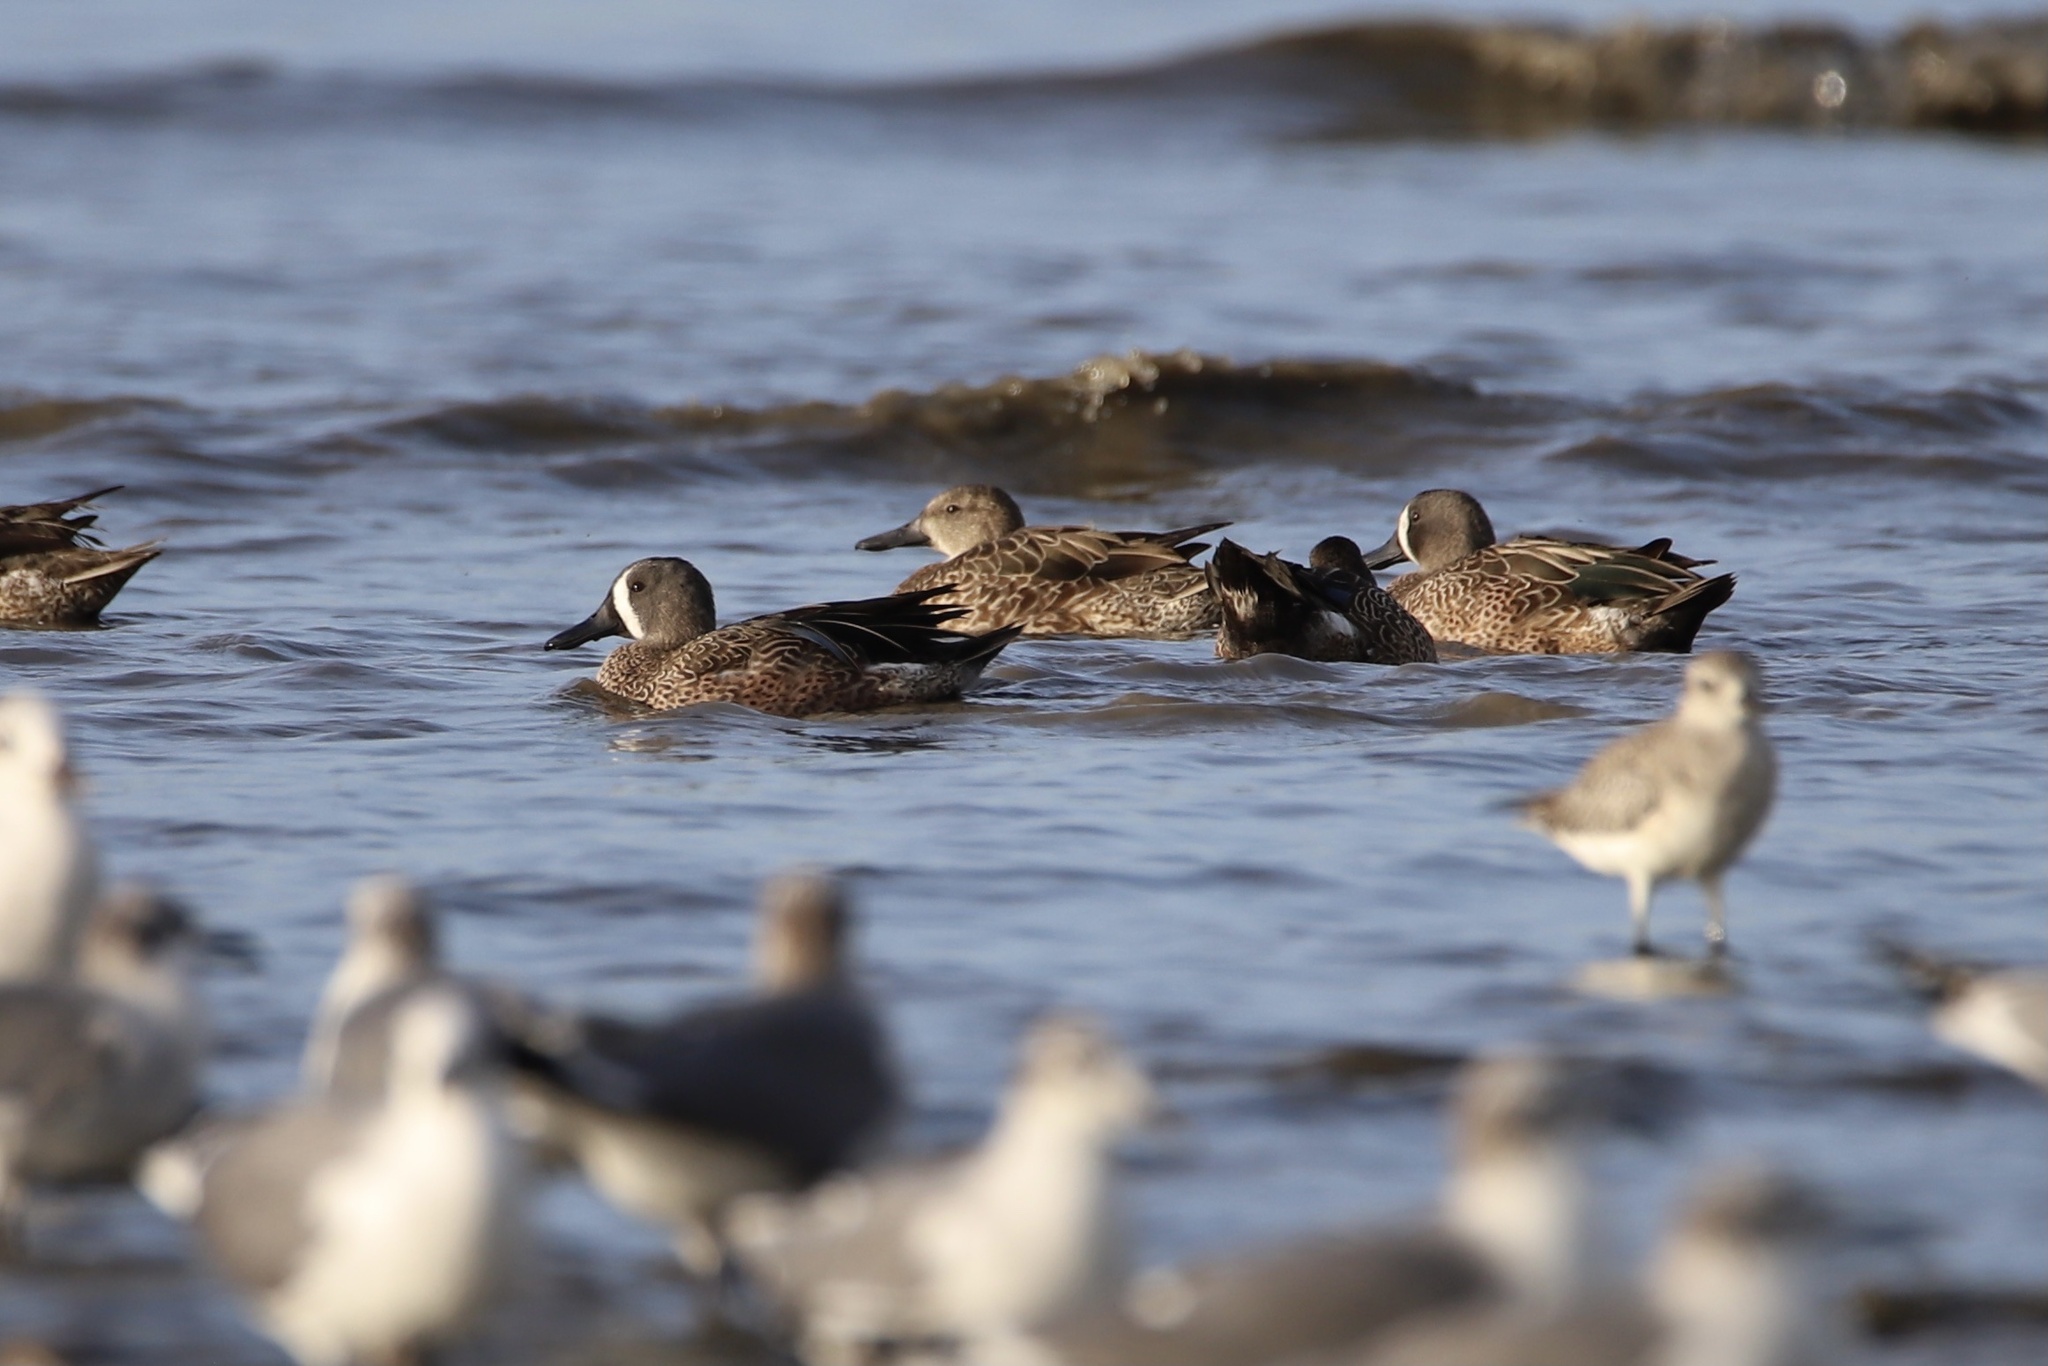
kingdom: Animalia
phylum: Chordata
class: Aves
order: Anseriformes
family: Anatidae
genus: Spatula
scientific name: Spatula discors
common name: Blue-winged teal
